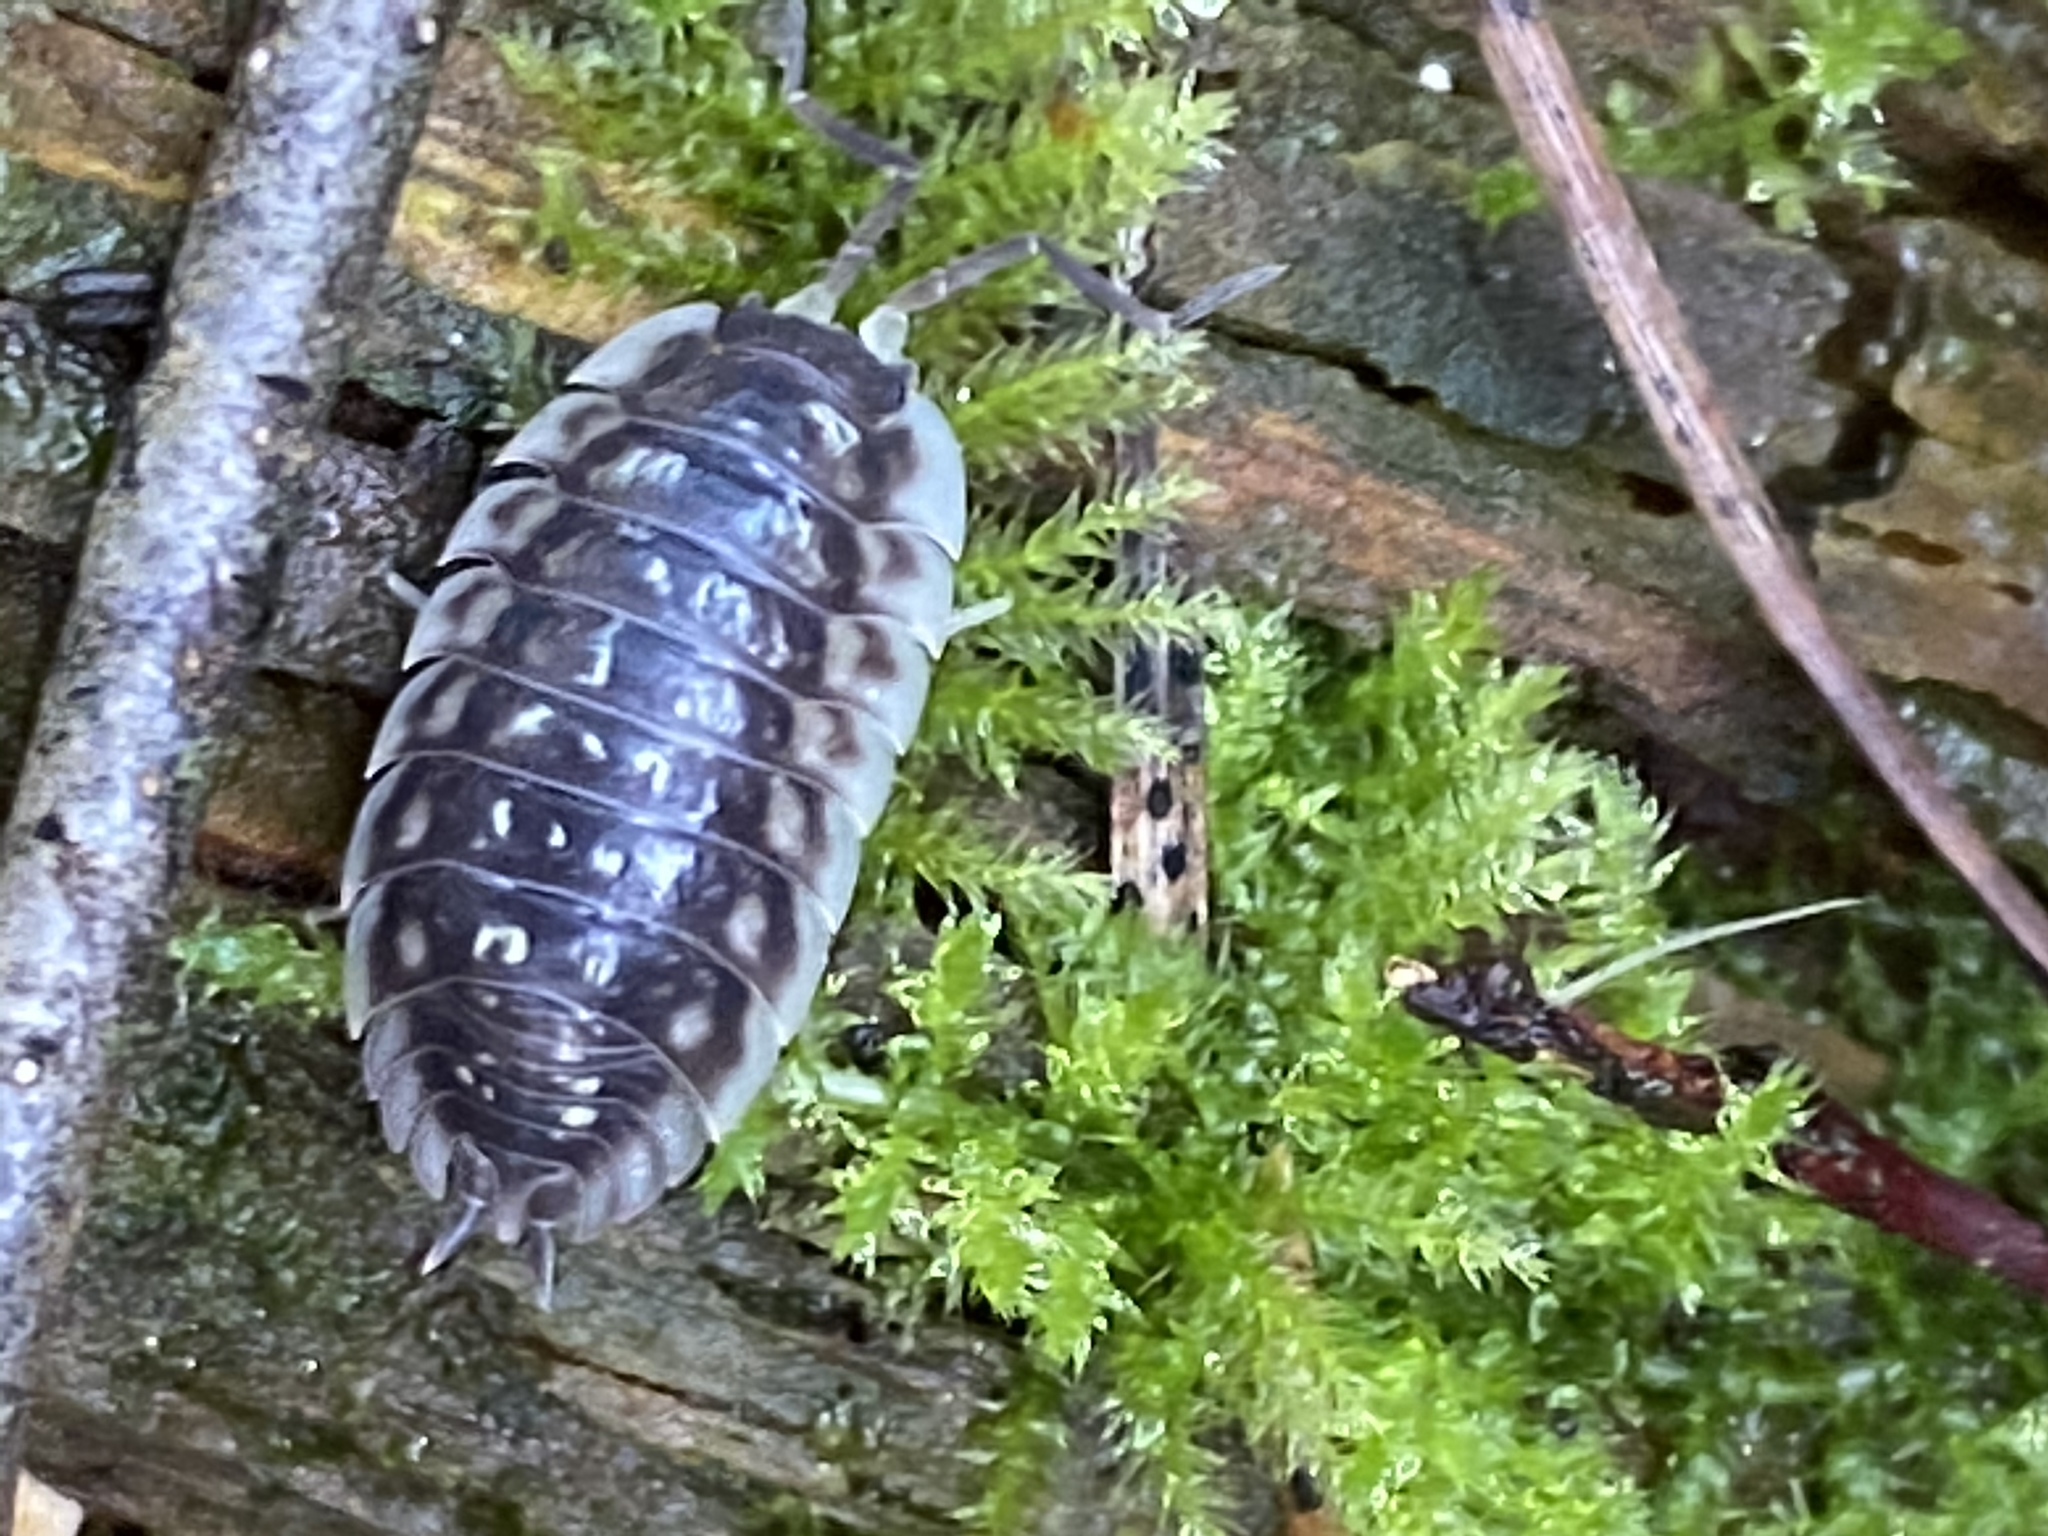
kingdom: Animalia
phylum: Arthropoda
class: Malacostraca
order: Isopoda
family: Oniscidae
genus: Oniscus
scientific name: Oniscus asellus
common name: Common shiny woodlouse
